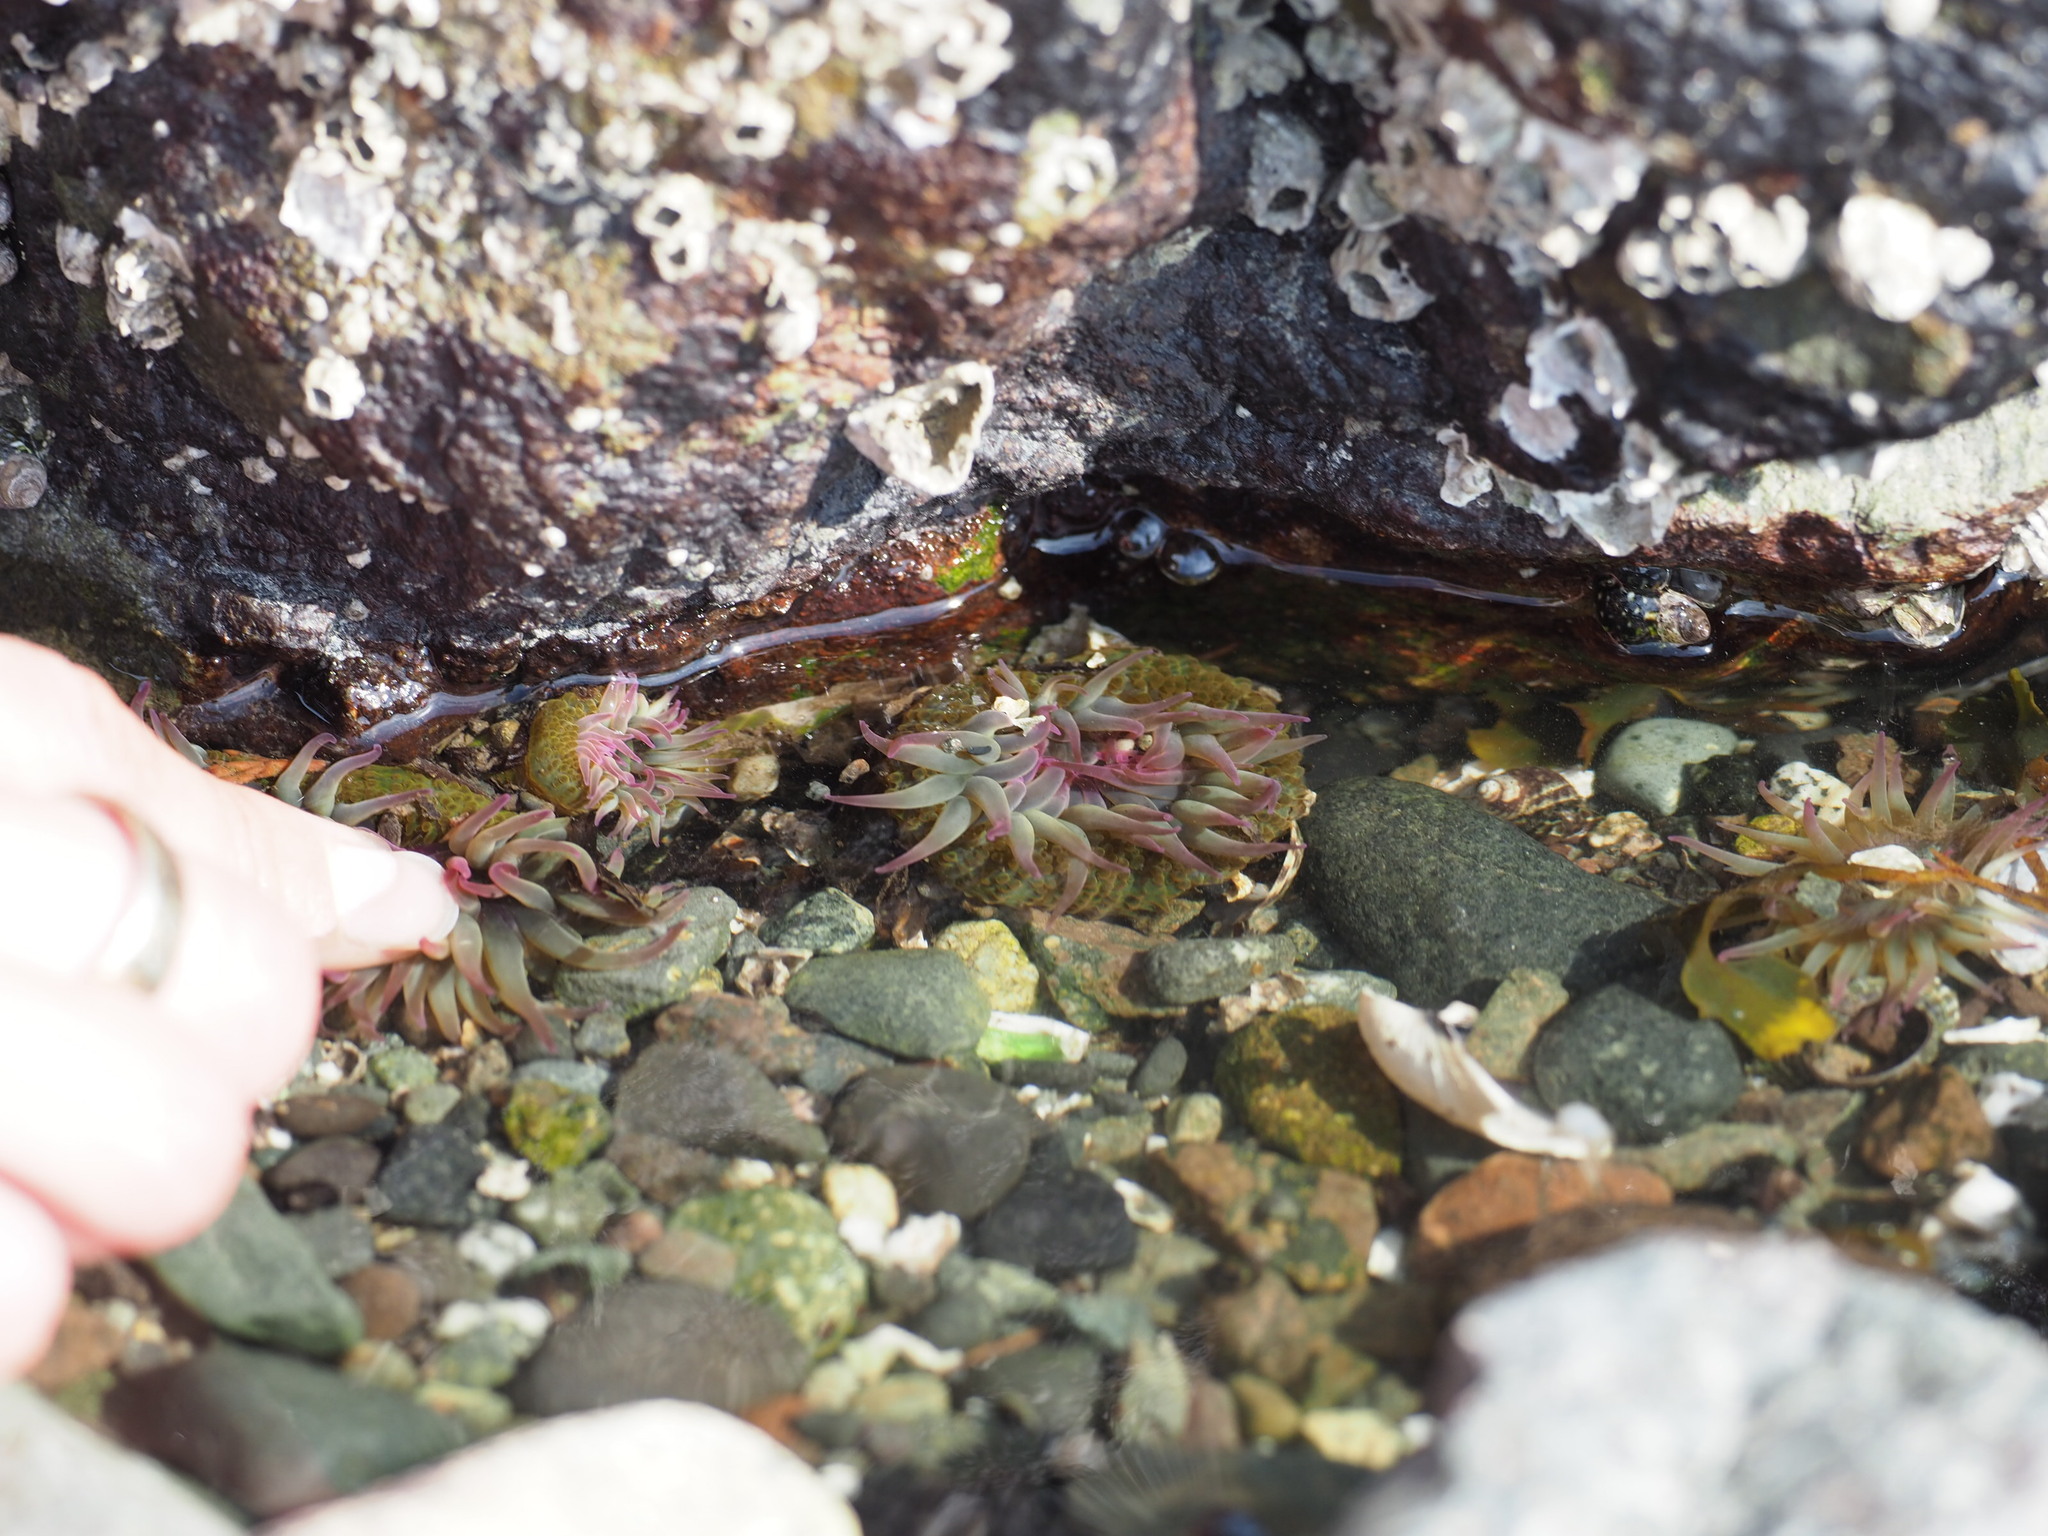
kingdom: Animalia
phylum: Cnidaria
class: Anthozoa
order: Actiniaria
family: Actiniidae
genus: Anthopleura
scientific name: Anthopleura elegantissima
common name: Clonal anemone
